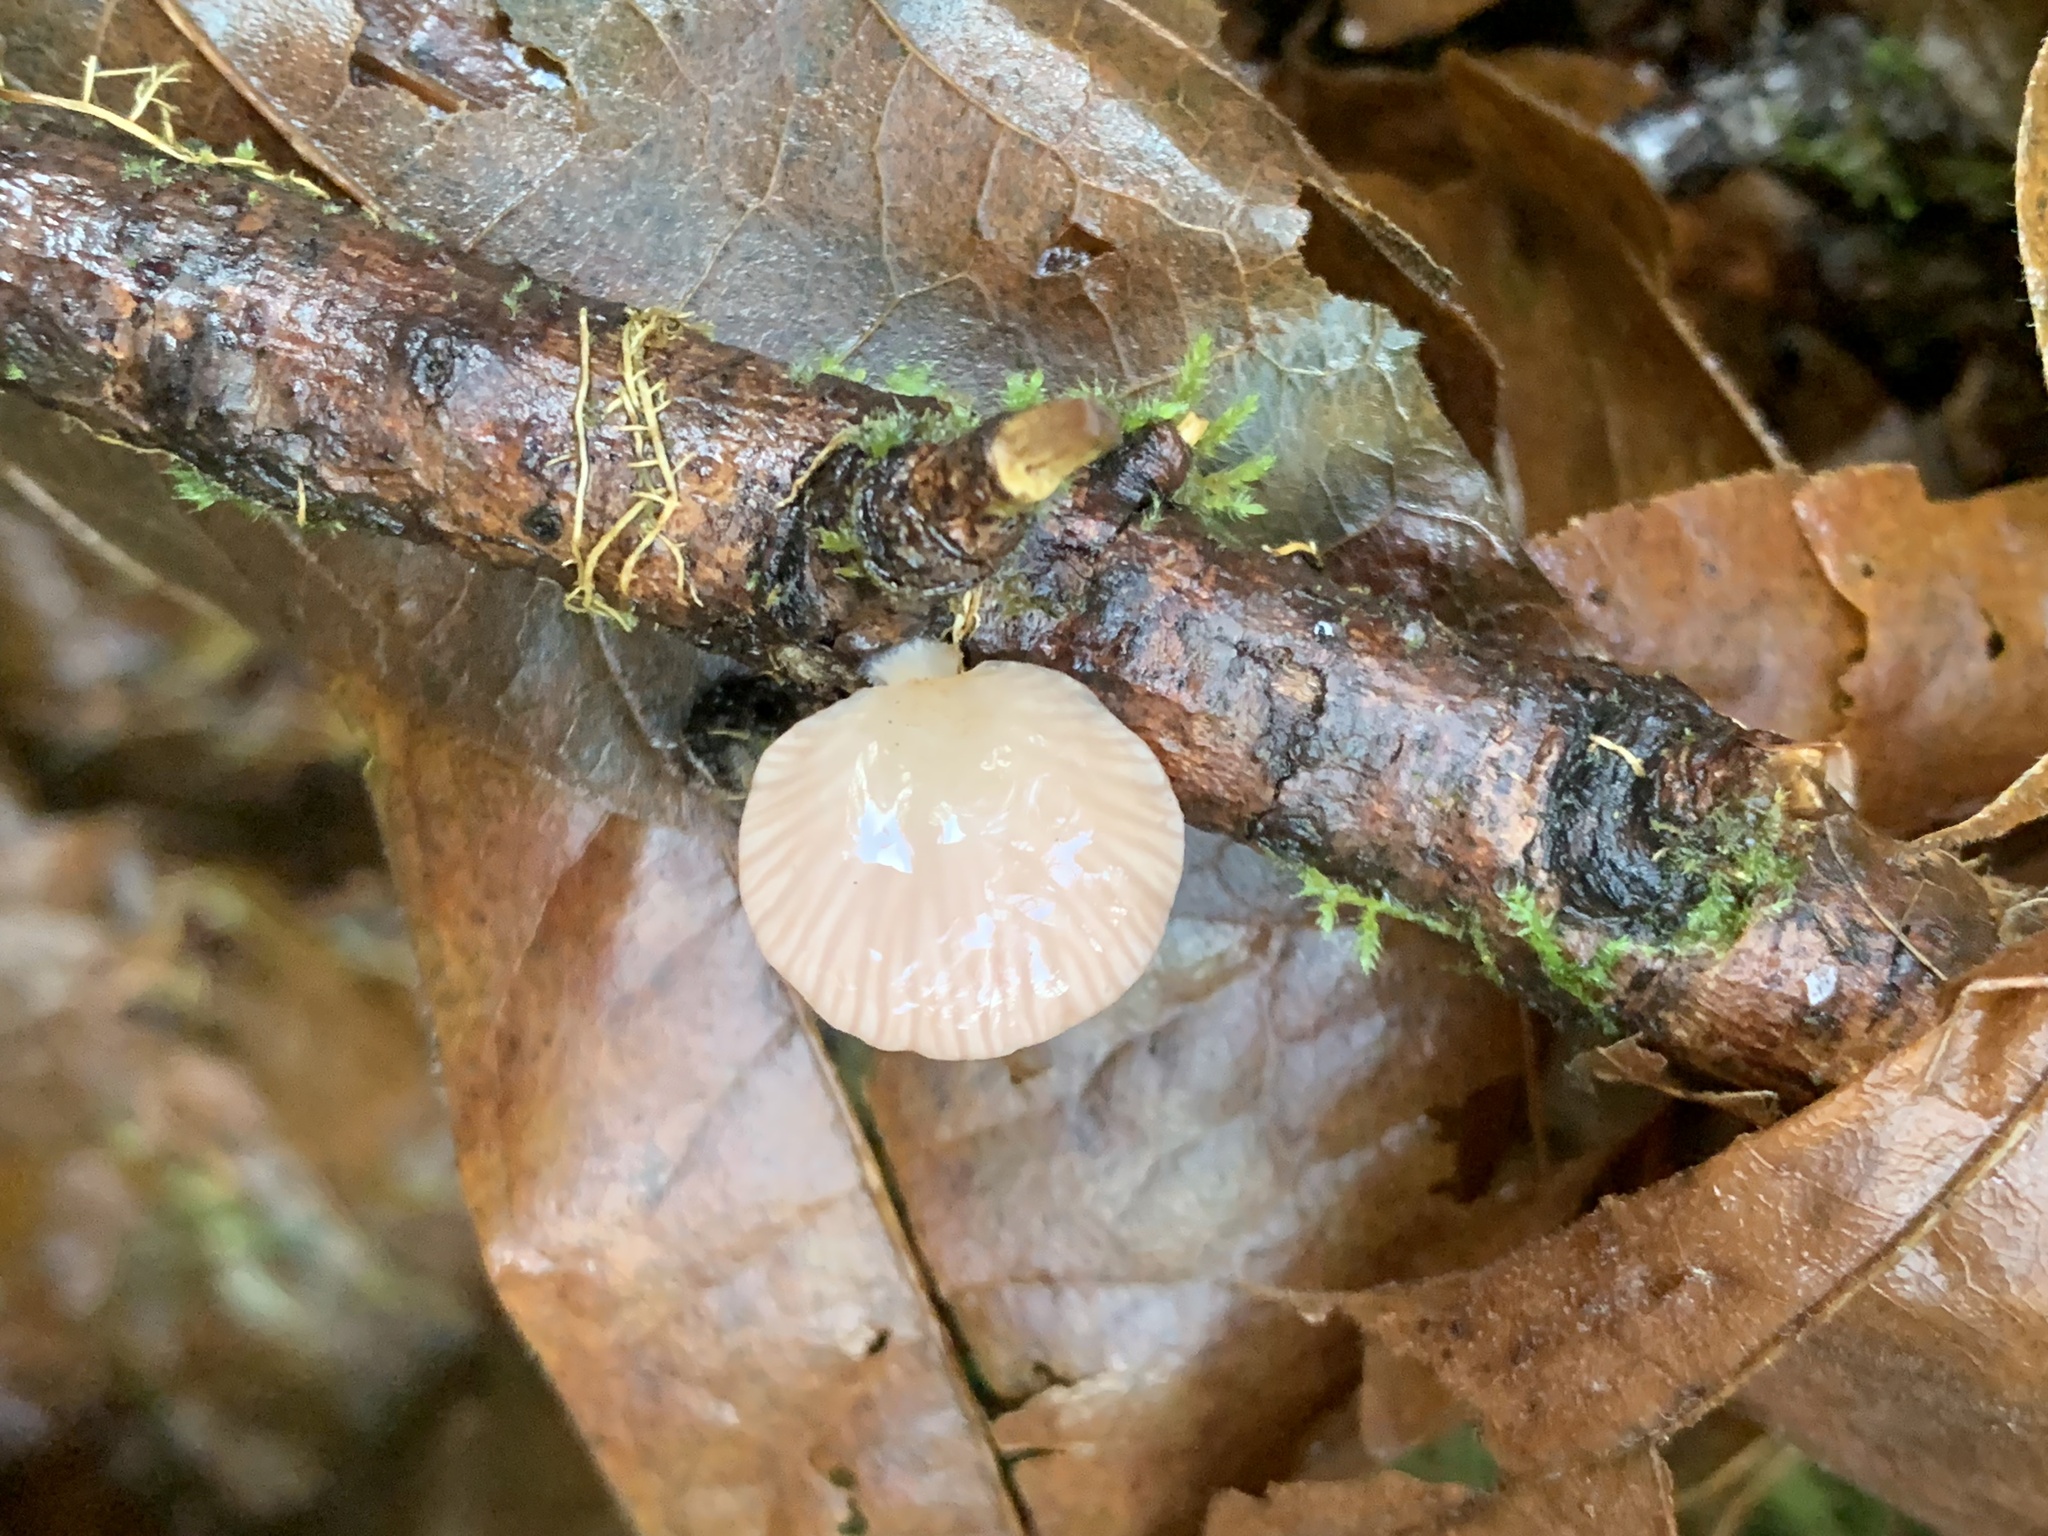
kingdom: Fungi
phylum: Basidiomycota
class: Agaricomycetes
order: Agaricales
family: Mycenaceae
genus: Panellus
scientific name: Panellus longinquus
